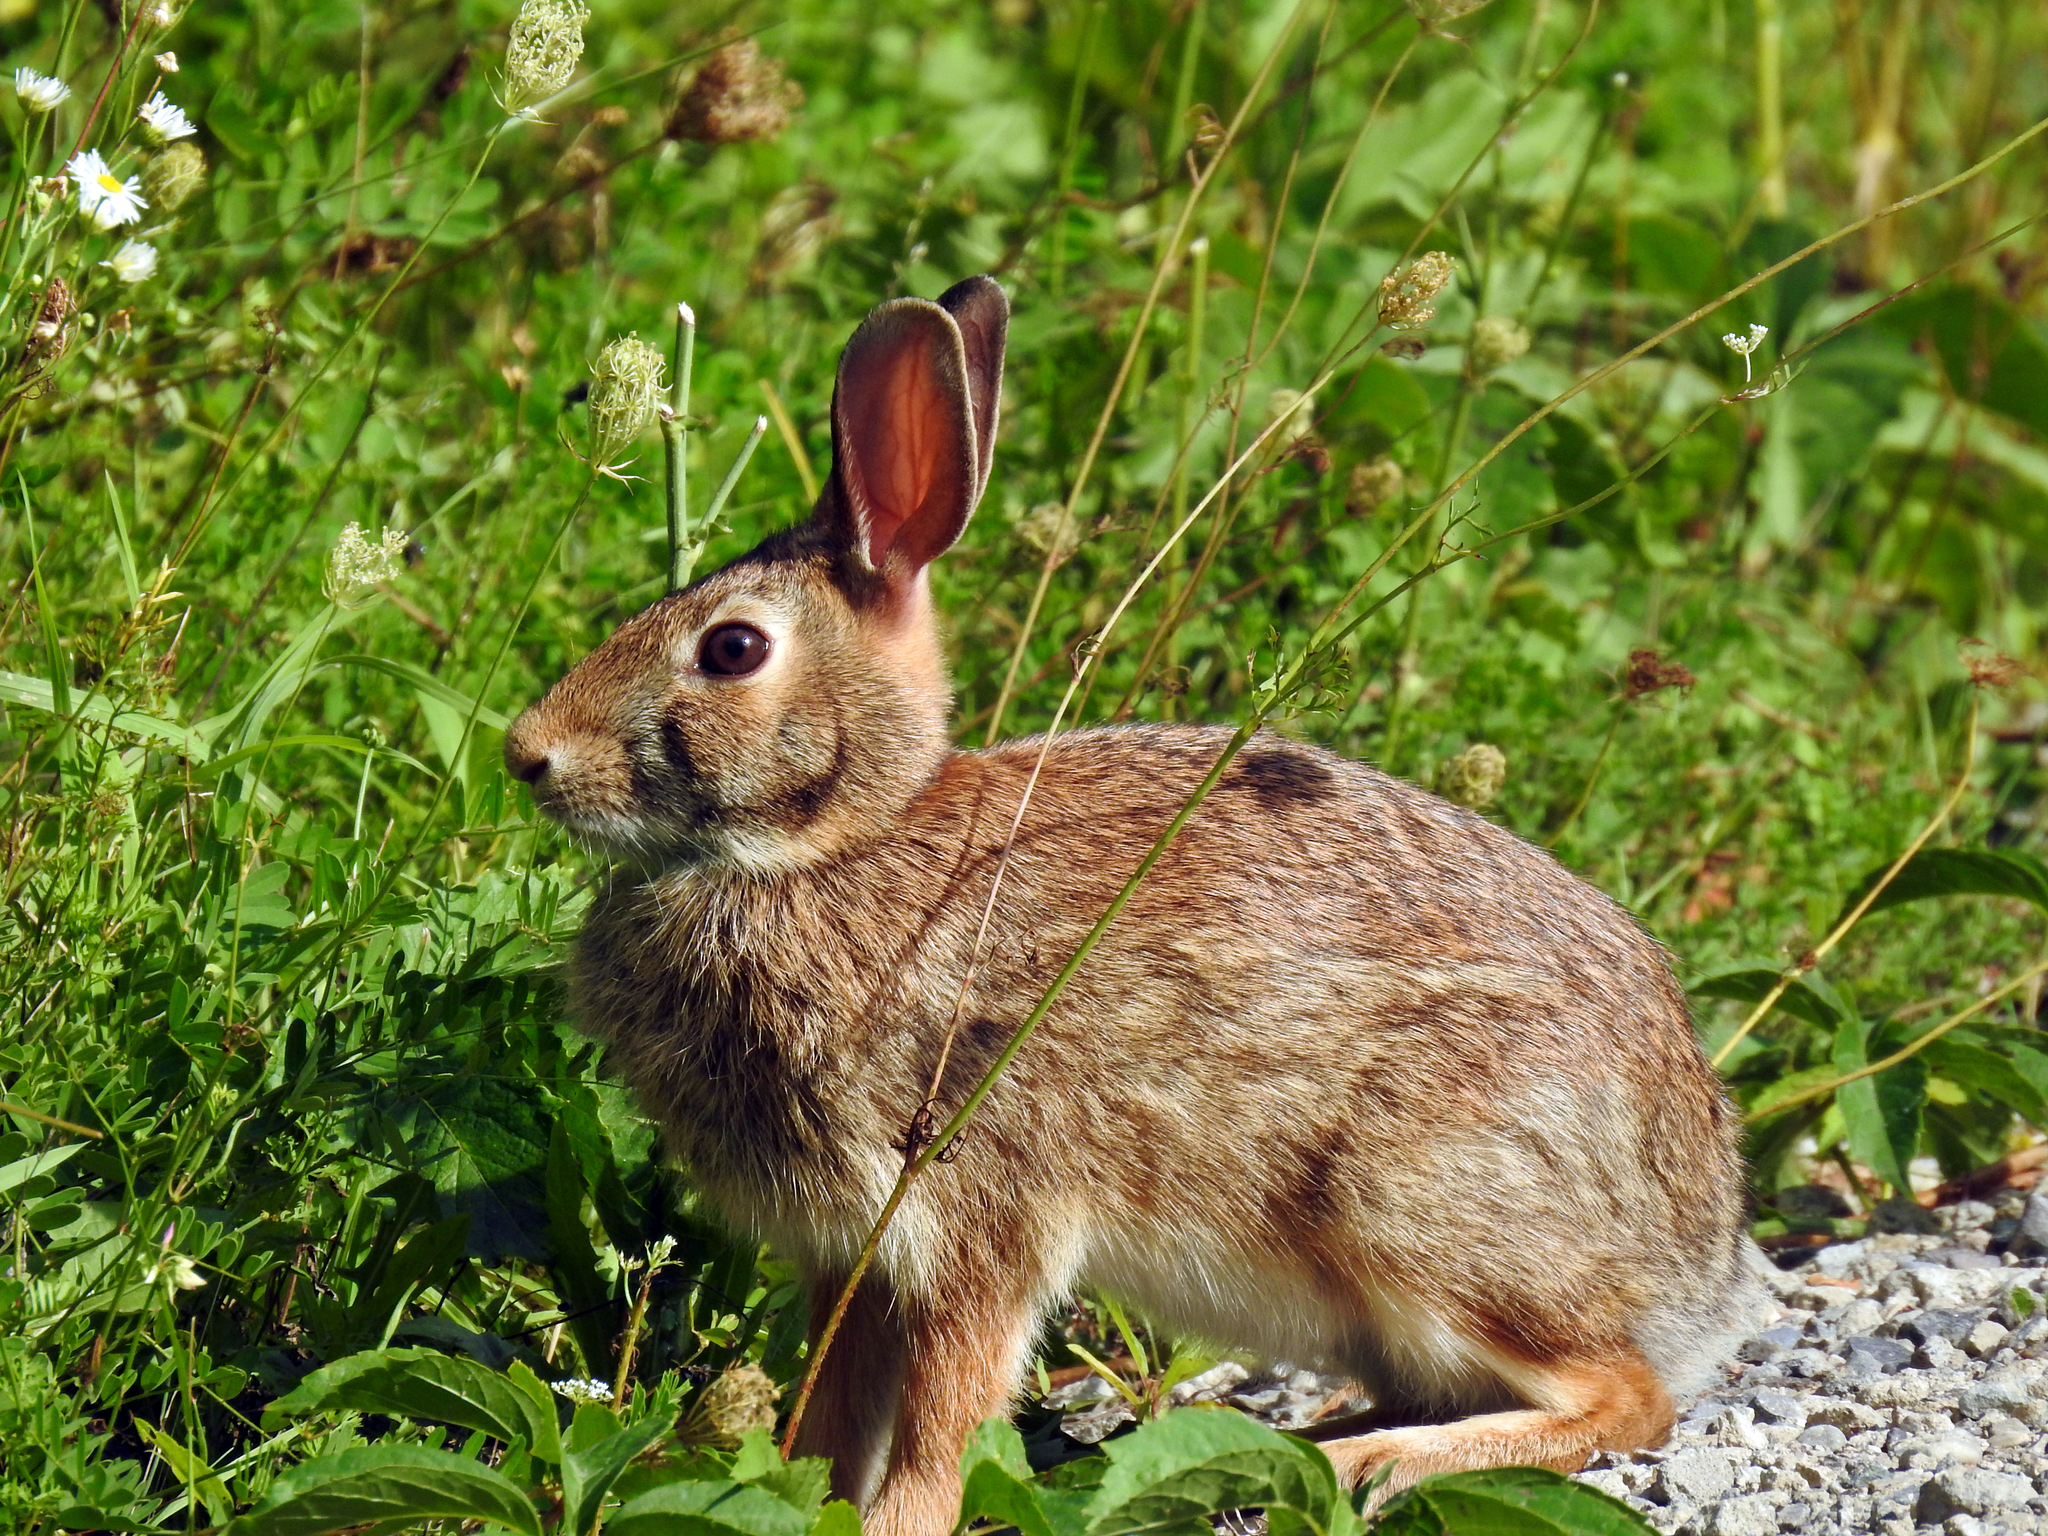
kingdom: Animalia
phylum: Chordata
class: Mammalia
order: Lagomorpha
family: Leporidae
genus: Sylvilagus
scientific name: Sylvilagus floridanus
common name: Eastern cottontail
